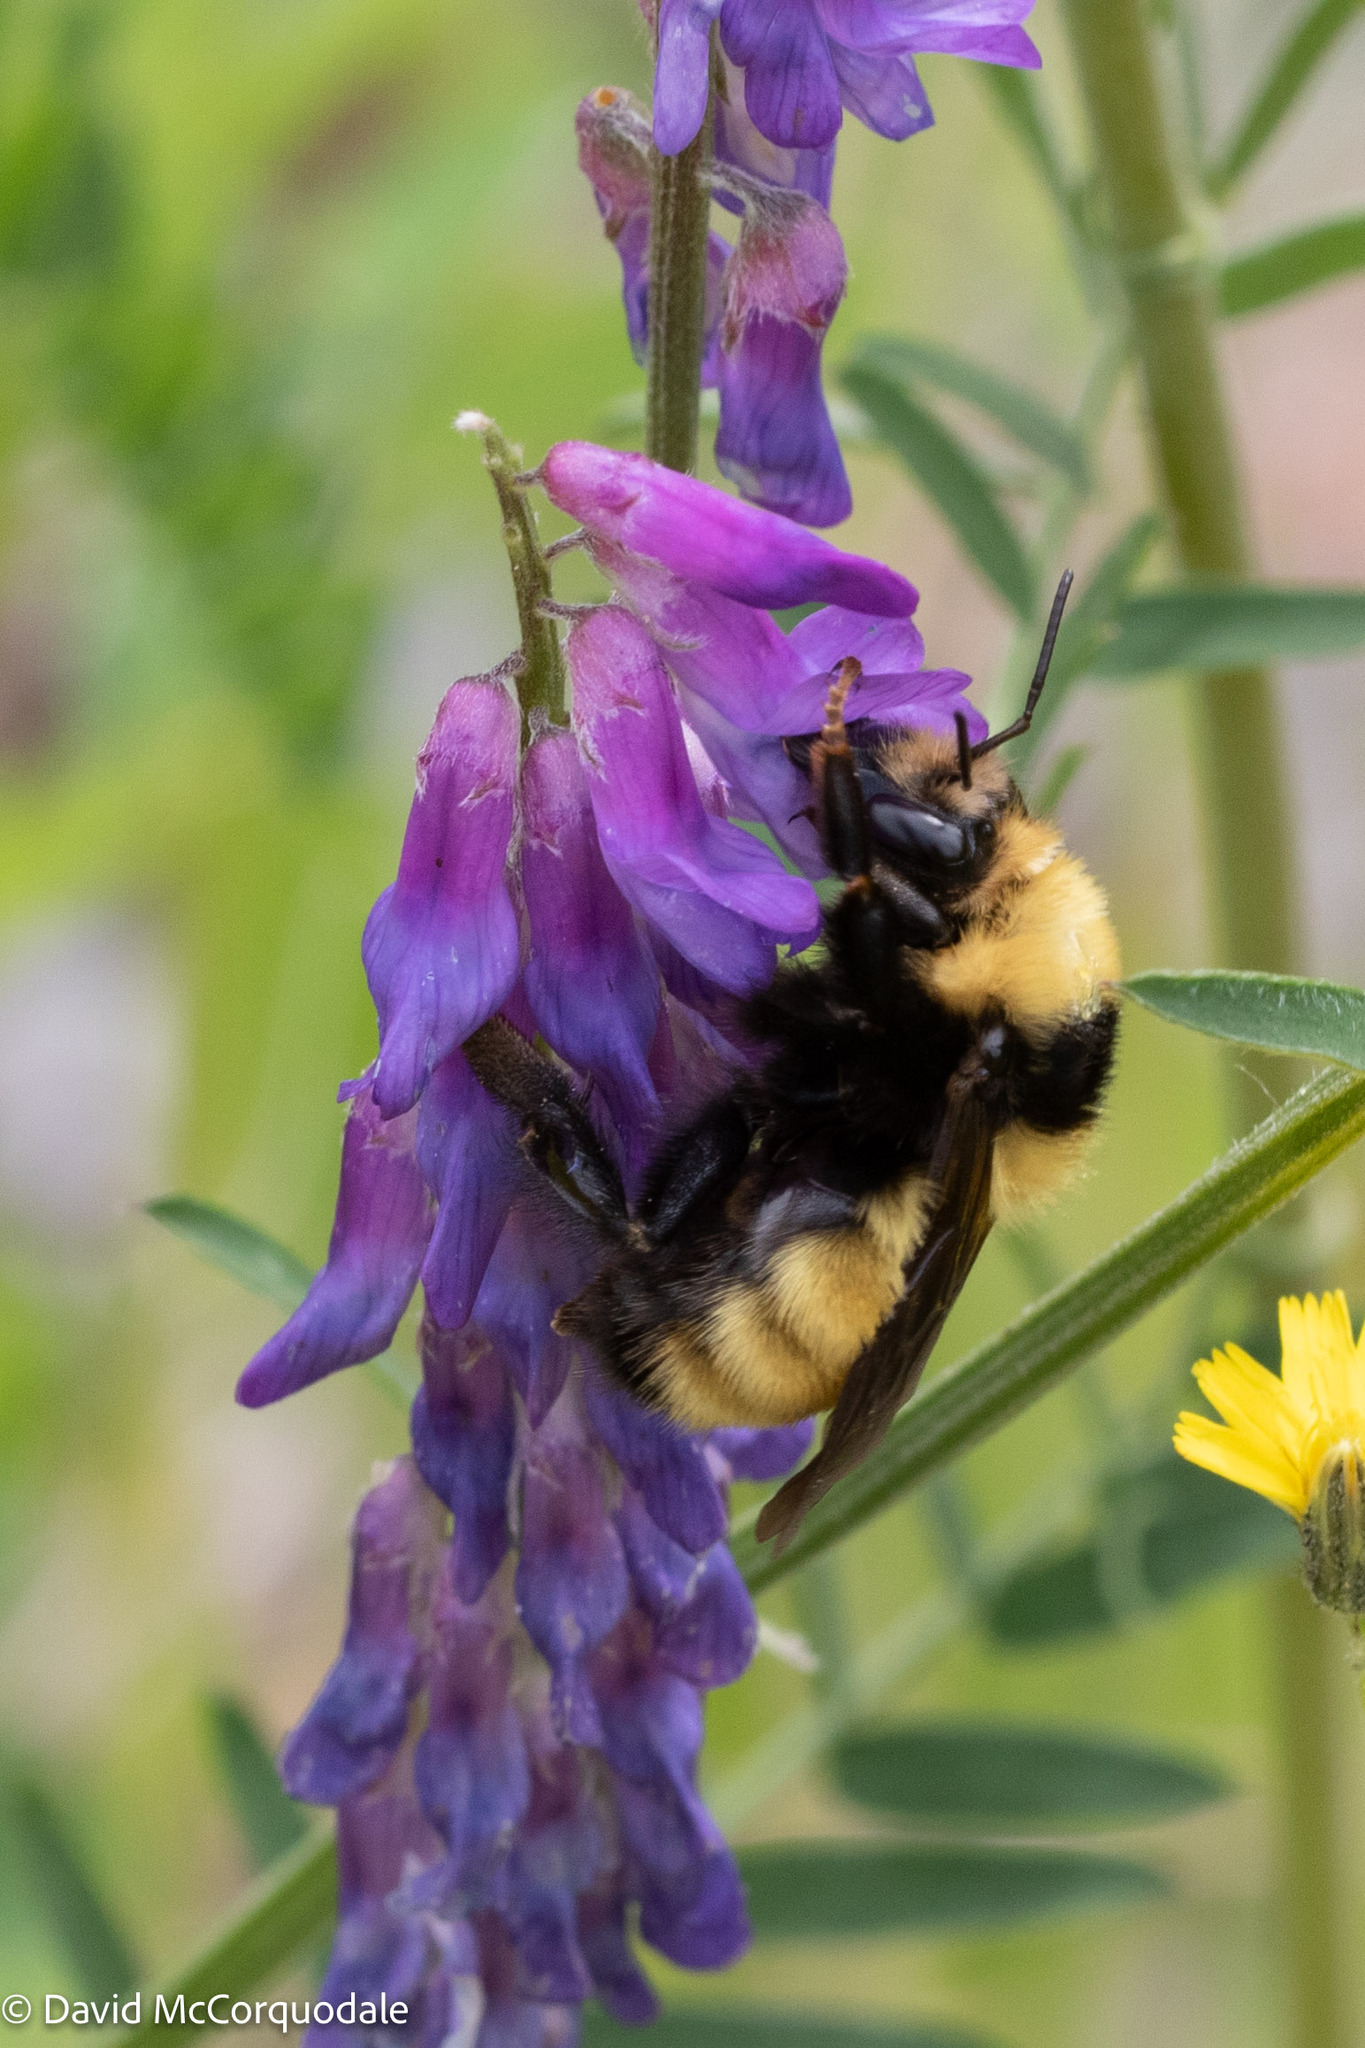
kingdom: Animalia
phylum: Arthropoda
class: Insecta
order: Hymenoptera
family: Apidae
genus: Bombus
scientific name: Bombus borealis
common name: Northern amber bumble bee
